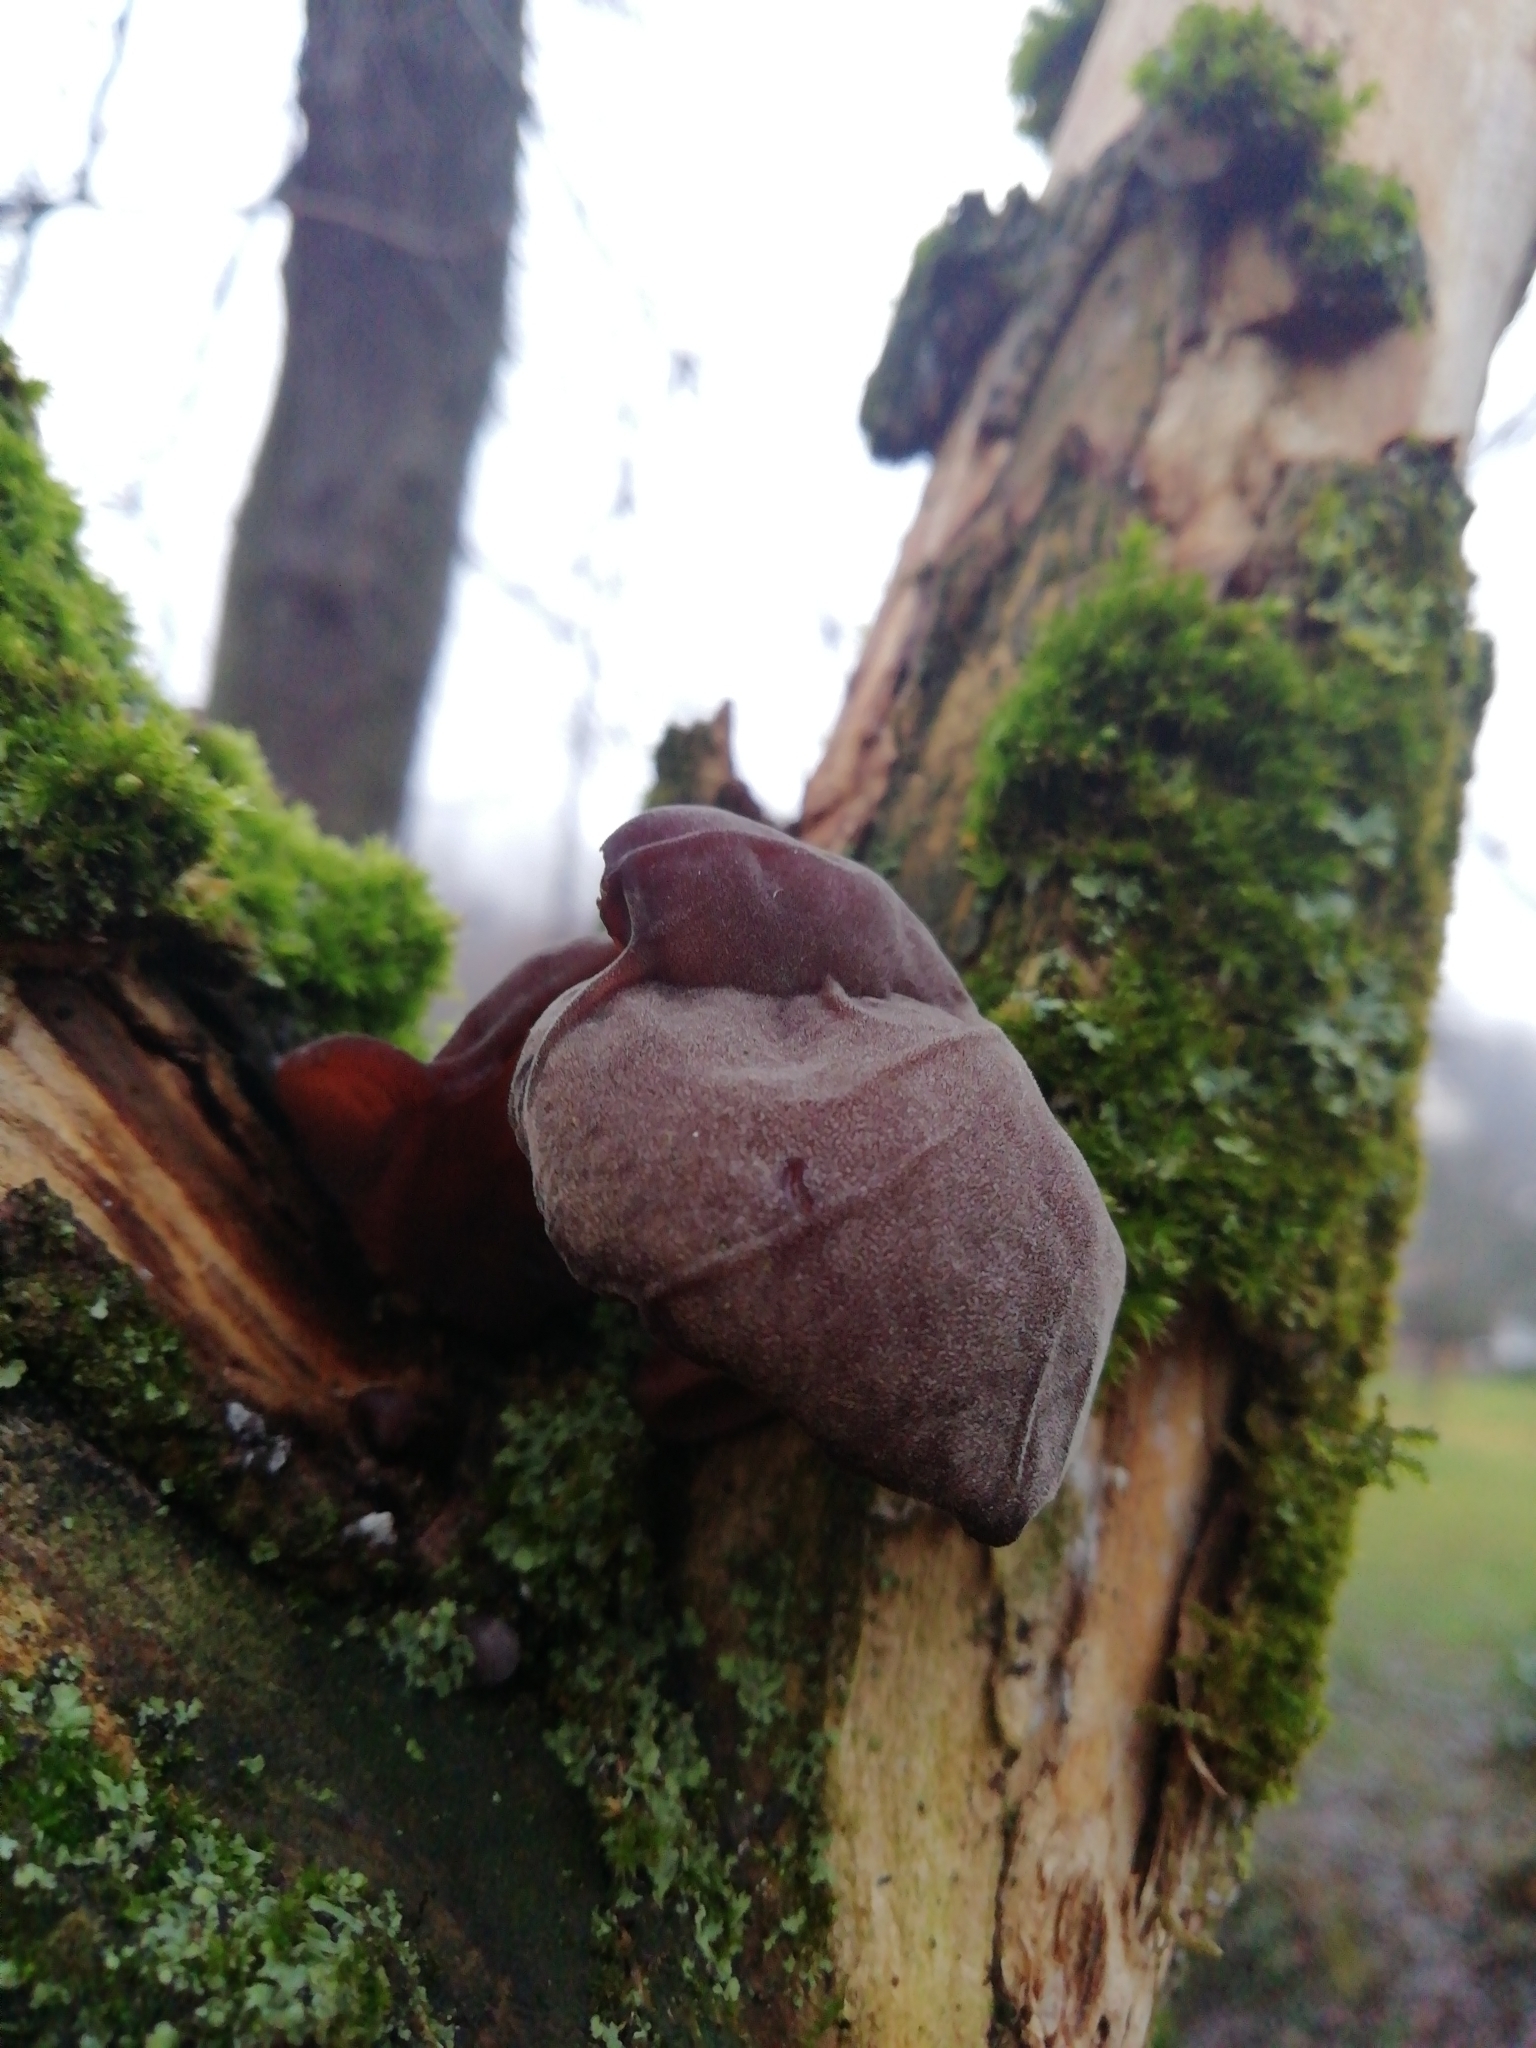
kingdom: Fungi
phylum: Basidiomycota
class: Agaricomycetes
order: Auriculariales
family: Auriculariaceae
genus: Auricularia
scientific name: Auricularia auricula-judae
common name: Jelly ear
